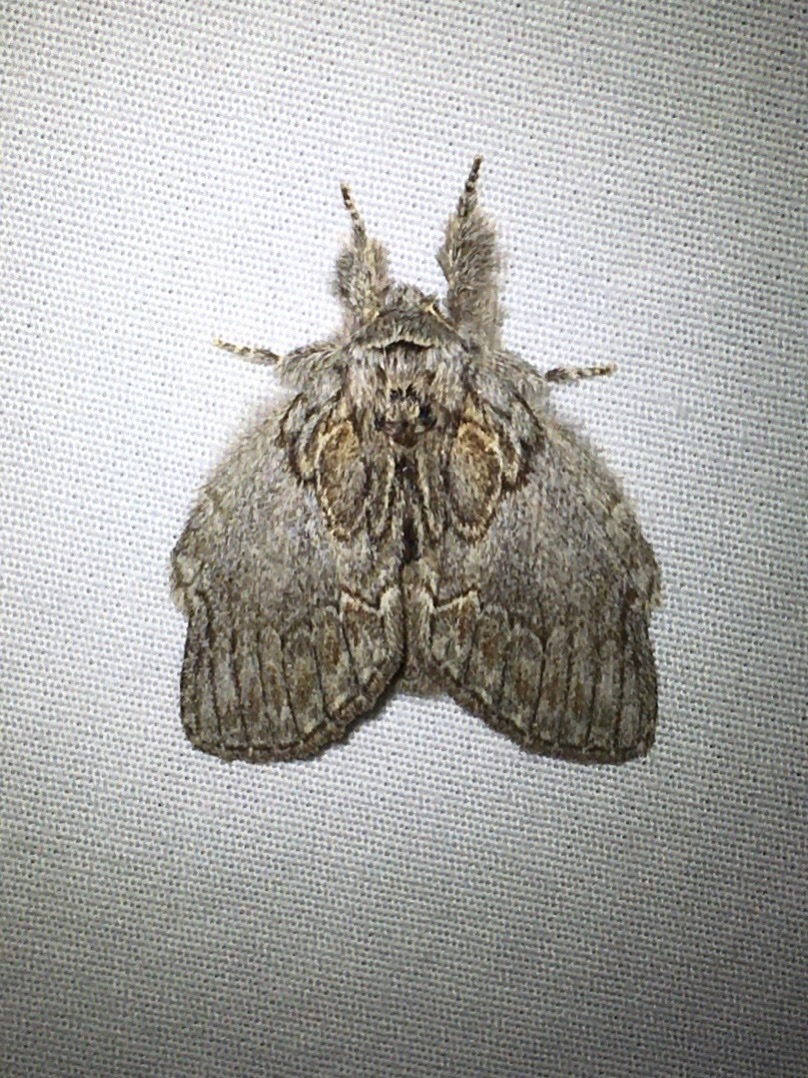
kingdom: Animalia
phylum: Arthropoda
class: Insecta
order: Lepidoptera
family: Notodontidae
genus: Peridea
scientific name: Peridea basitriens
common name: Oval-based prominent
